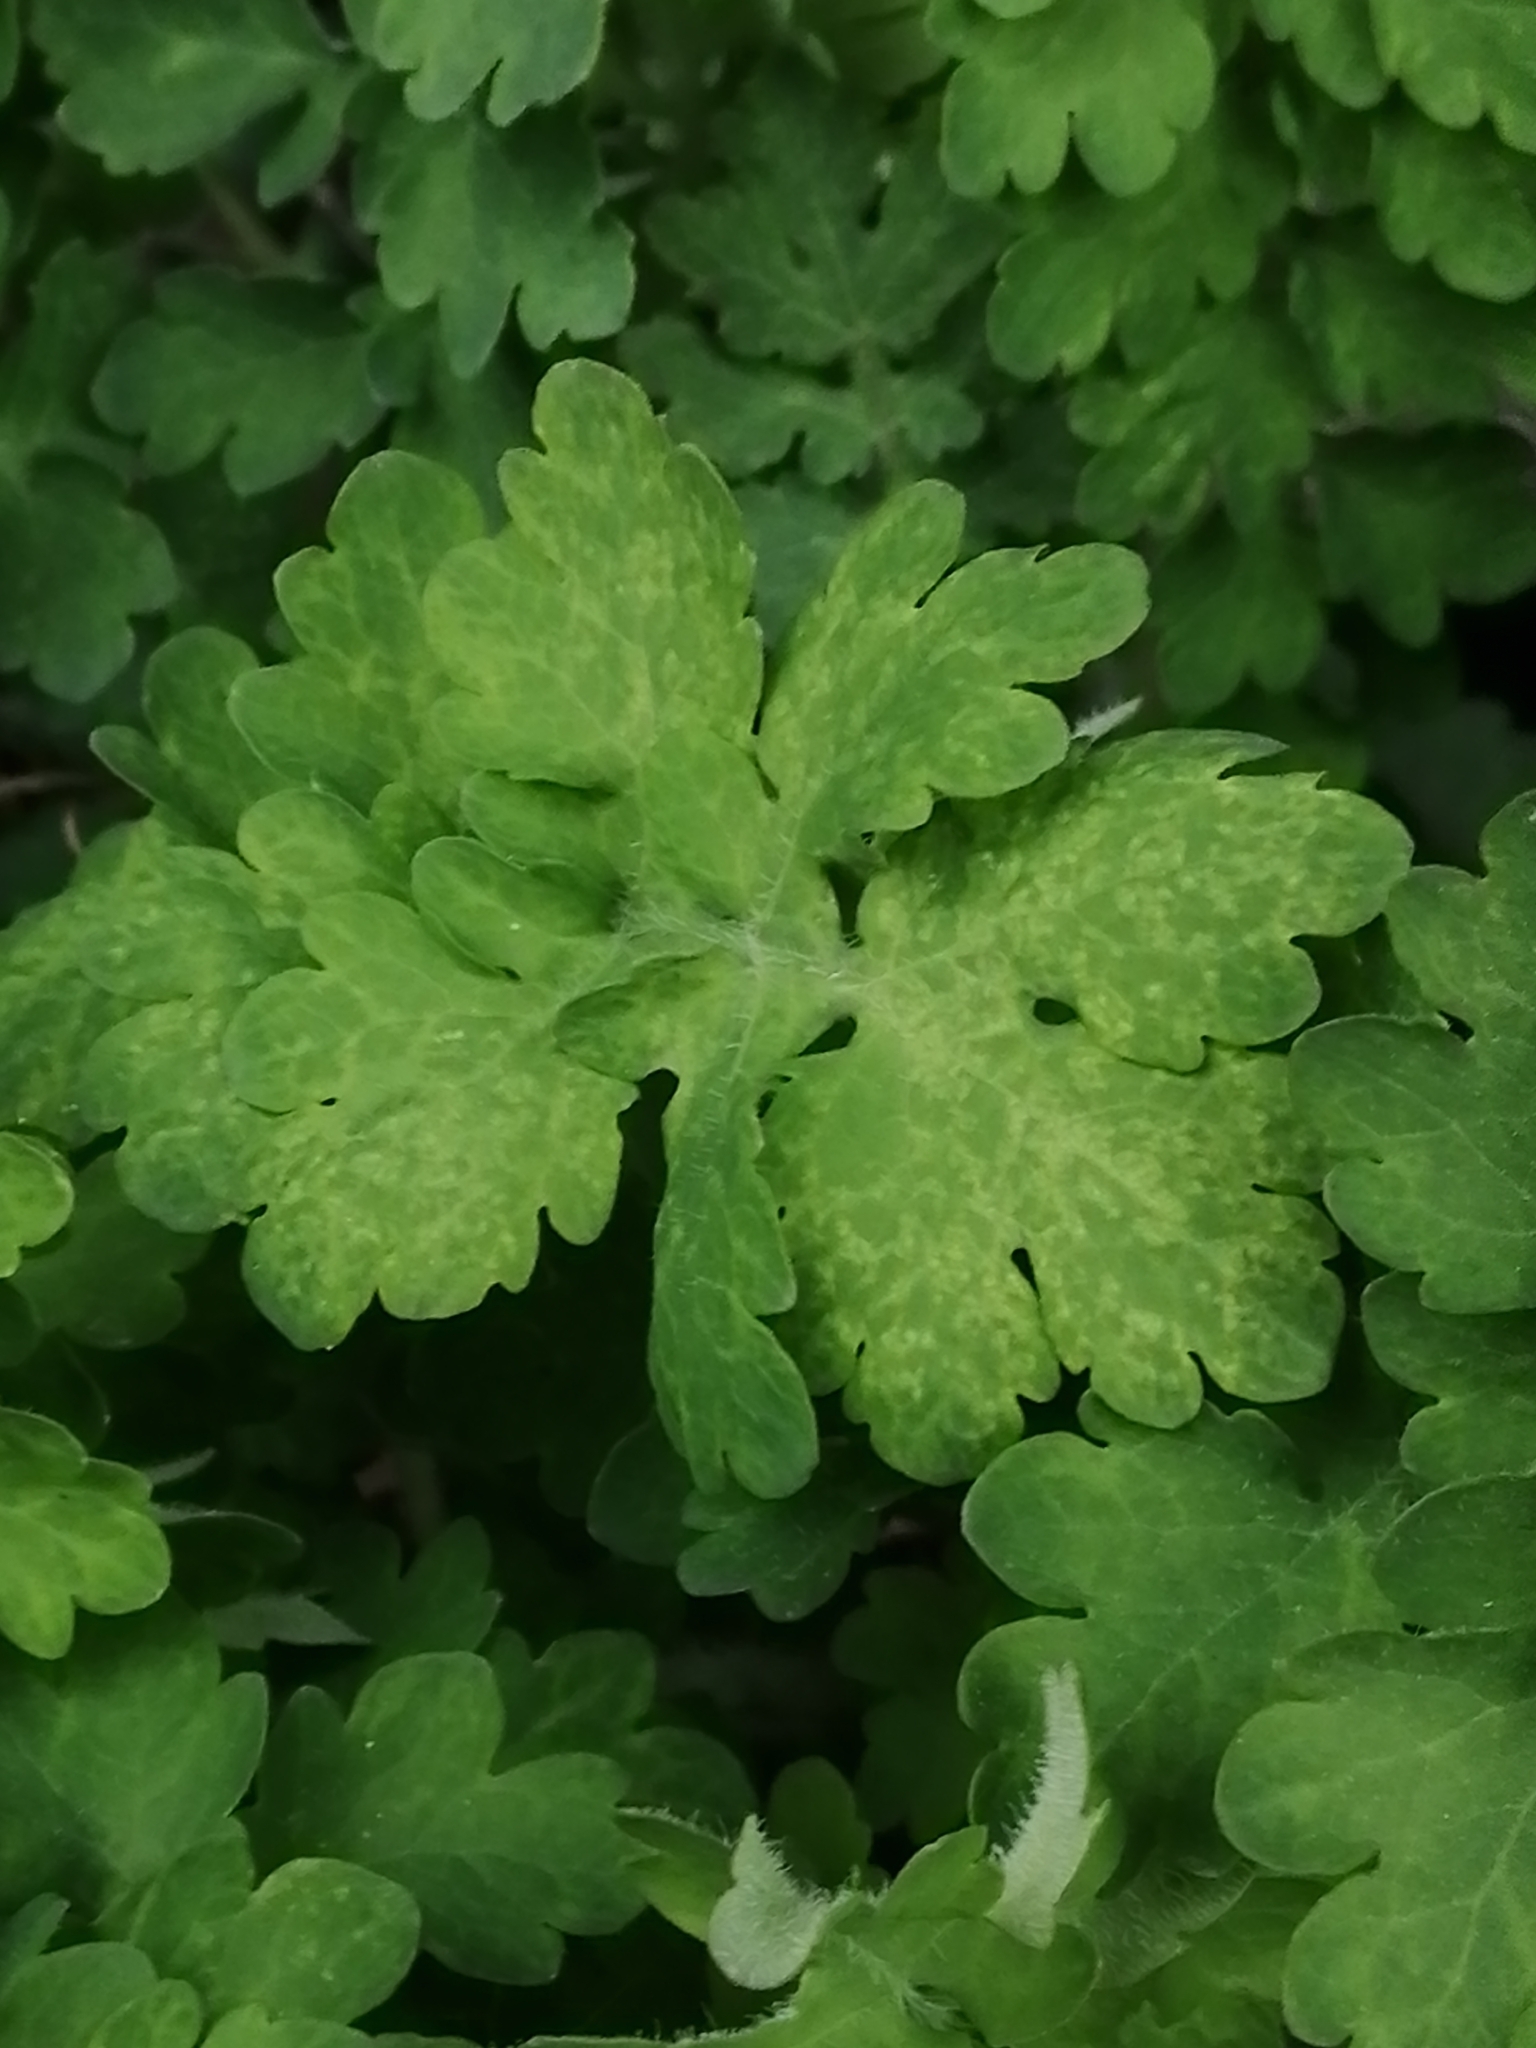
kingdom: Plantae
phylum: Tracheophyta
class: Magnoliopsida
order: Ranunculales
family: Papaveraceae
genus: Chelidonium
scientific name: Chelidonium majus
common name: Greater celandine
